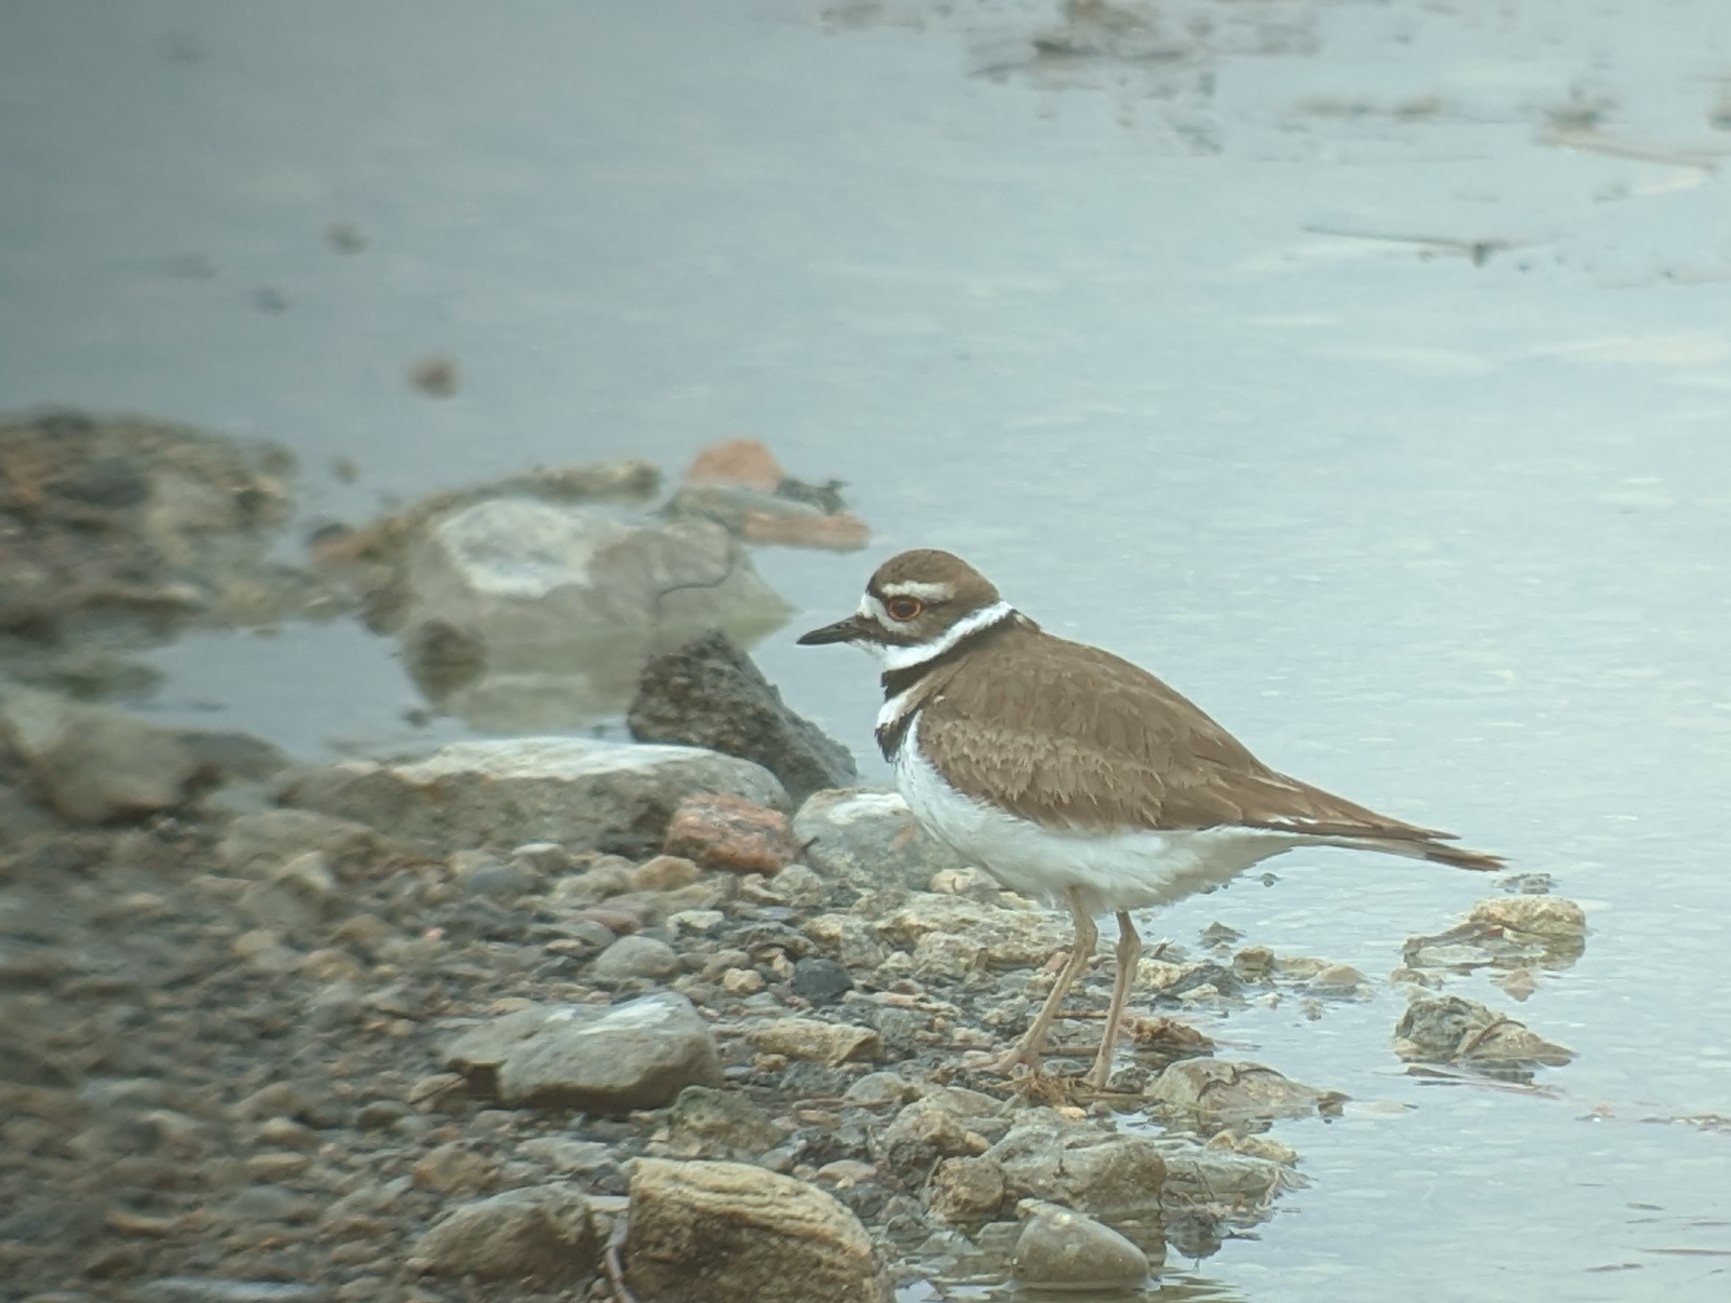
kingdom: Animalia
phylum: Chordata
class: Aves
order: Charadriiformes
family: Charadriidae
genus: Charadrius
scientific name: Charadrius vociferus
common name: Killdeer
